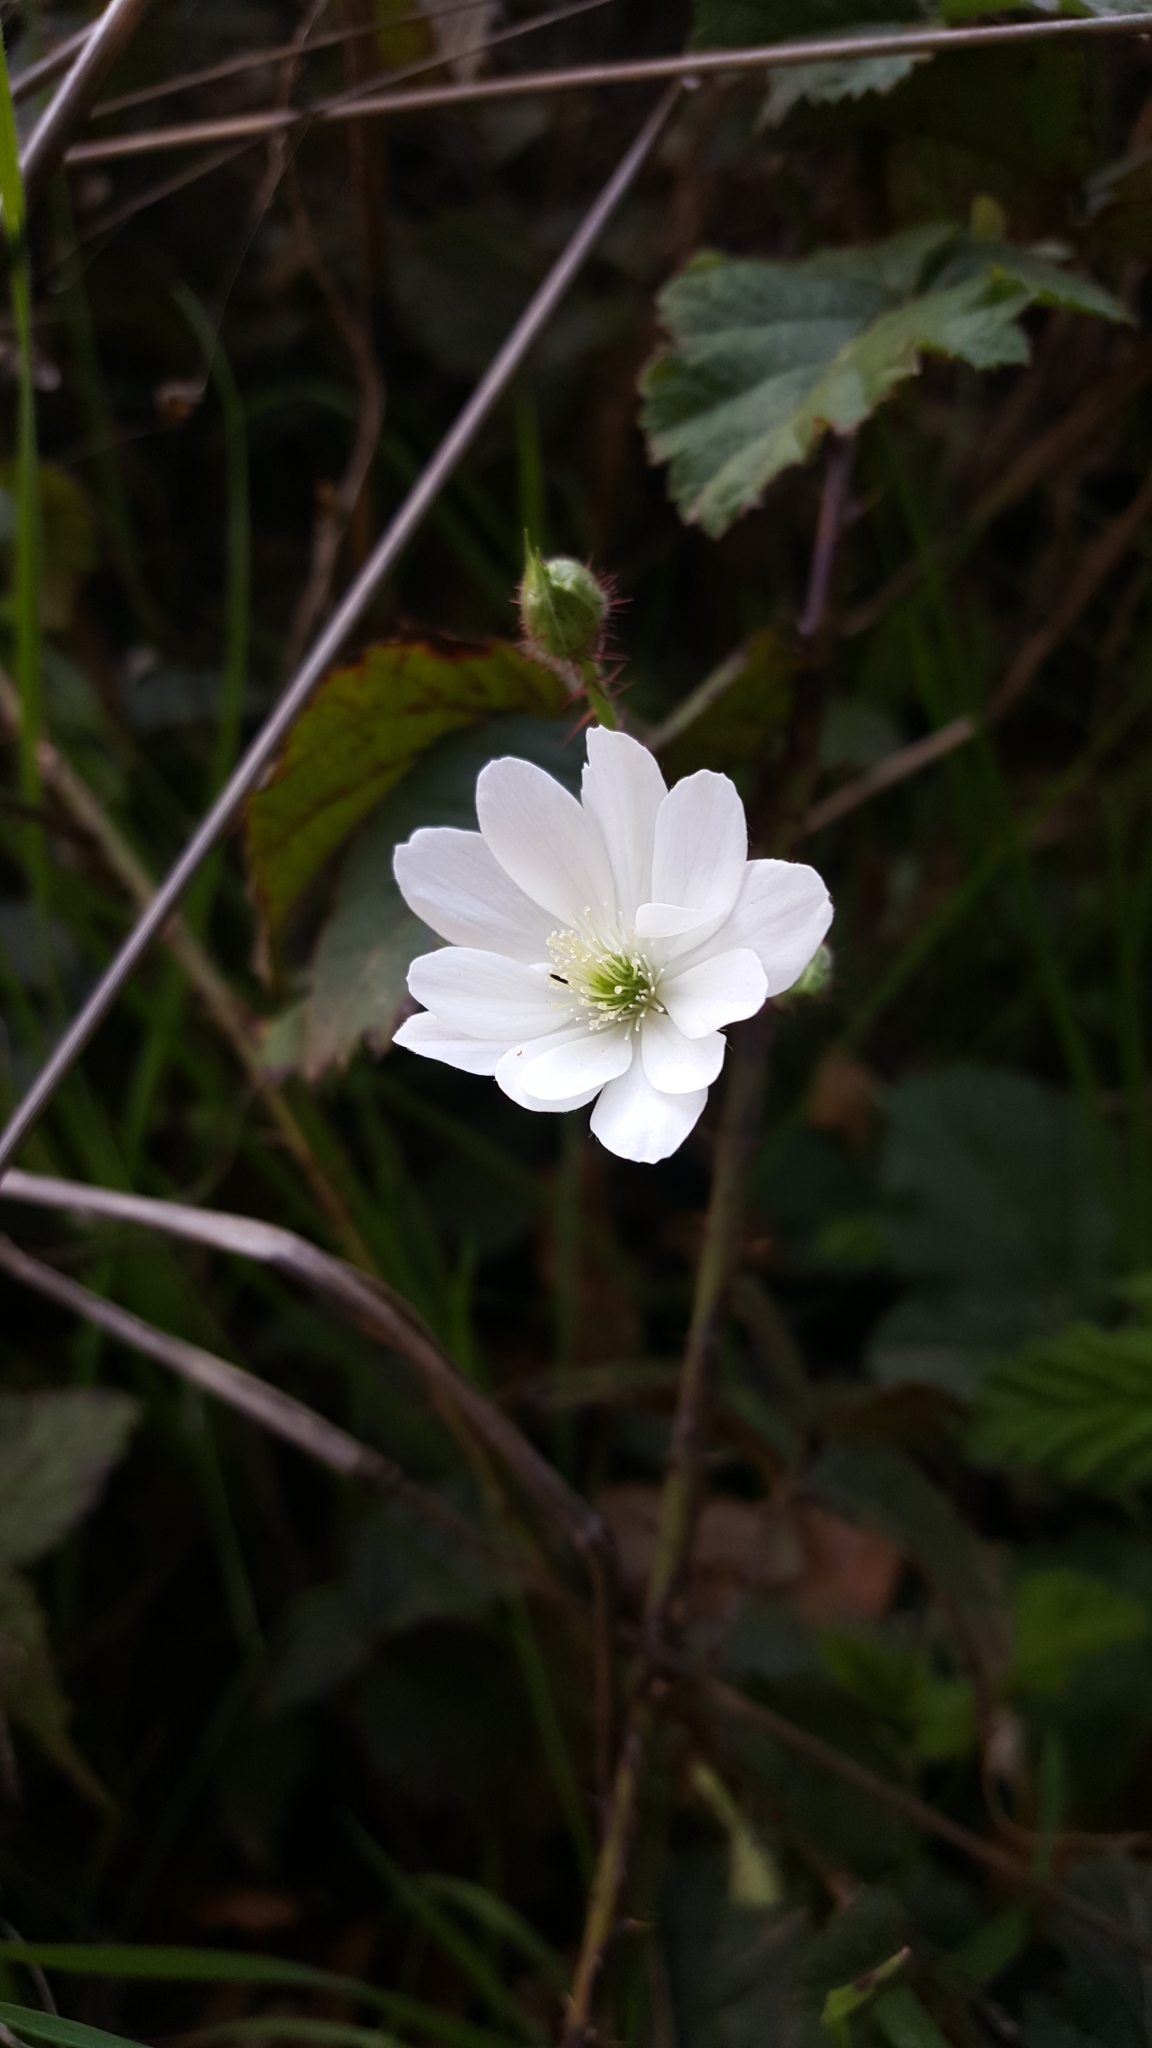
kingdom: Plantae
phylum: Tracheophyta
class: Magnoliopsida
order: Rosales
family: Rosaceae
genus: Rubus
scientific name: Rubus ursinus
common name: Pacific blackberry
